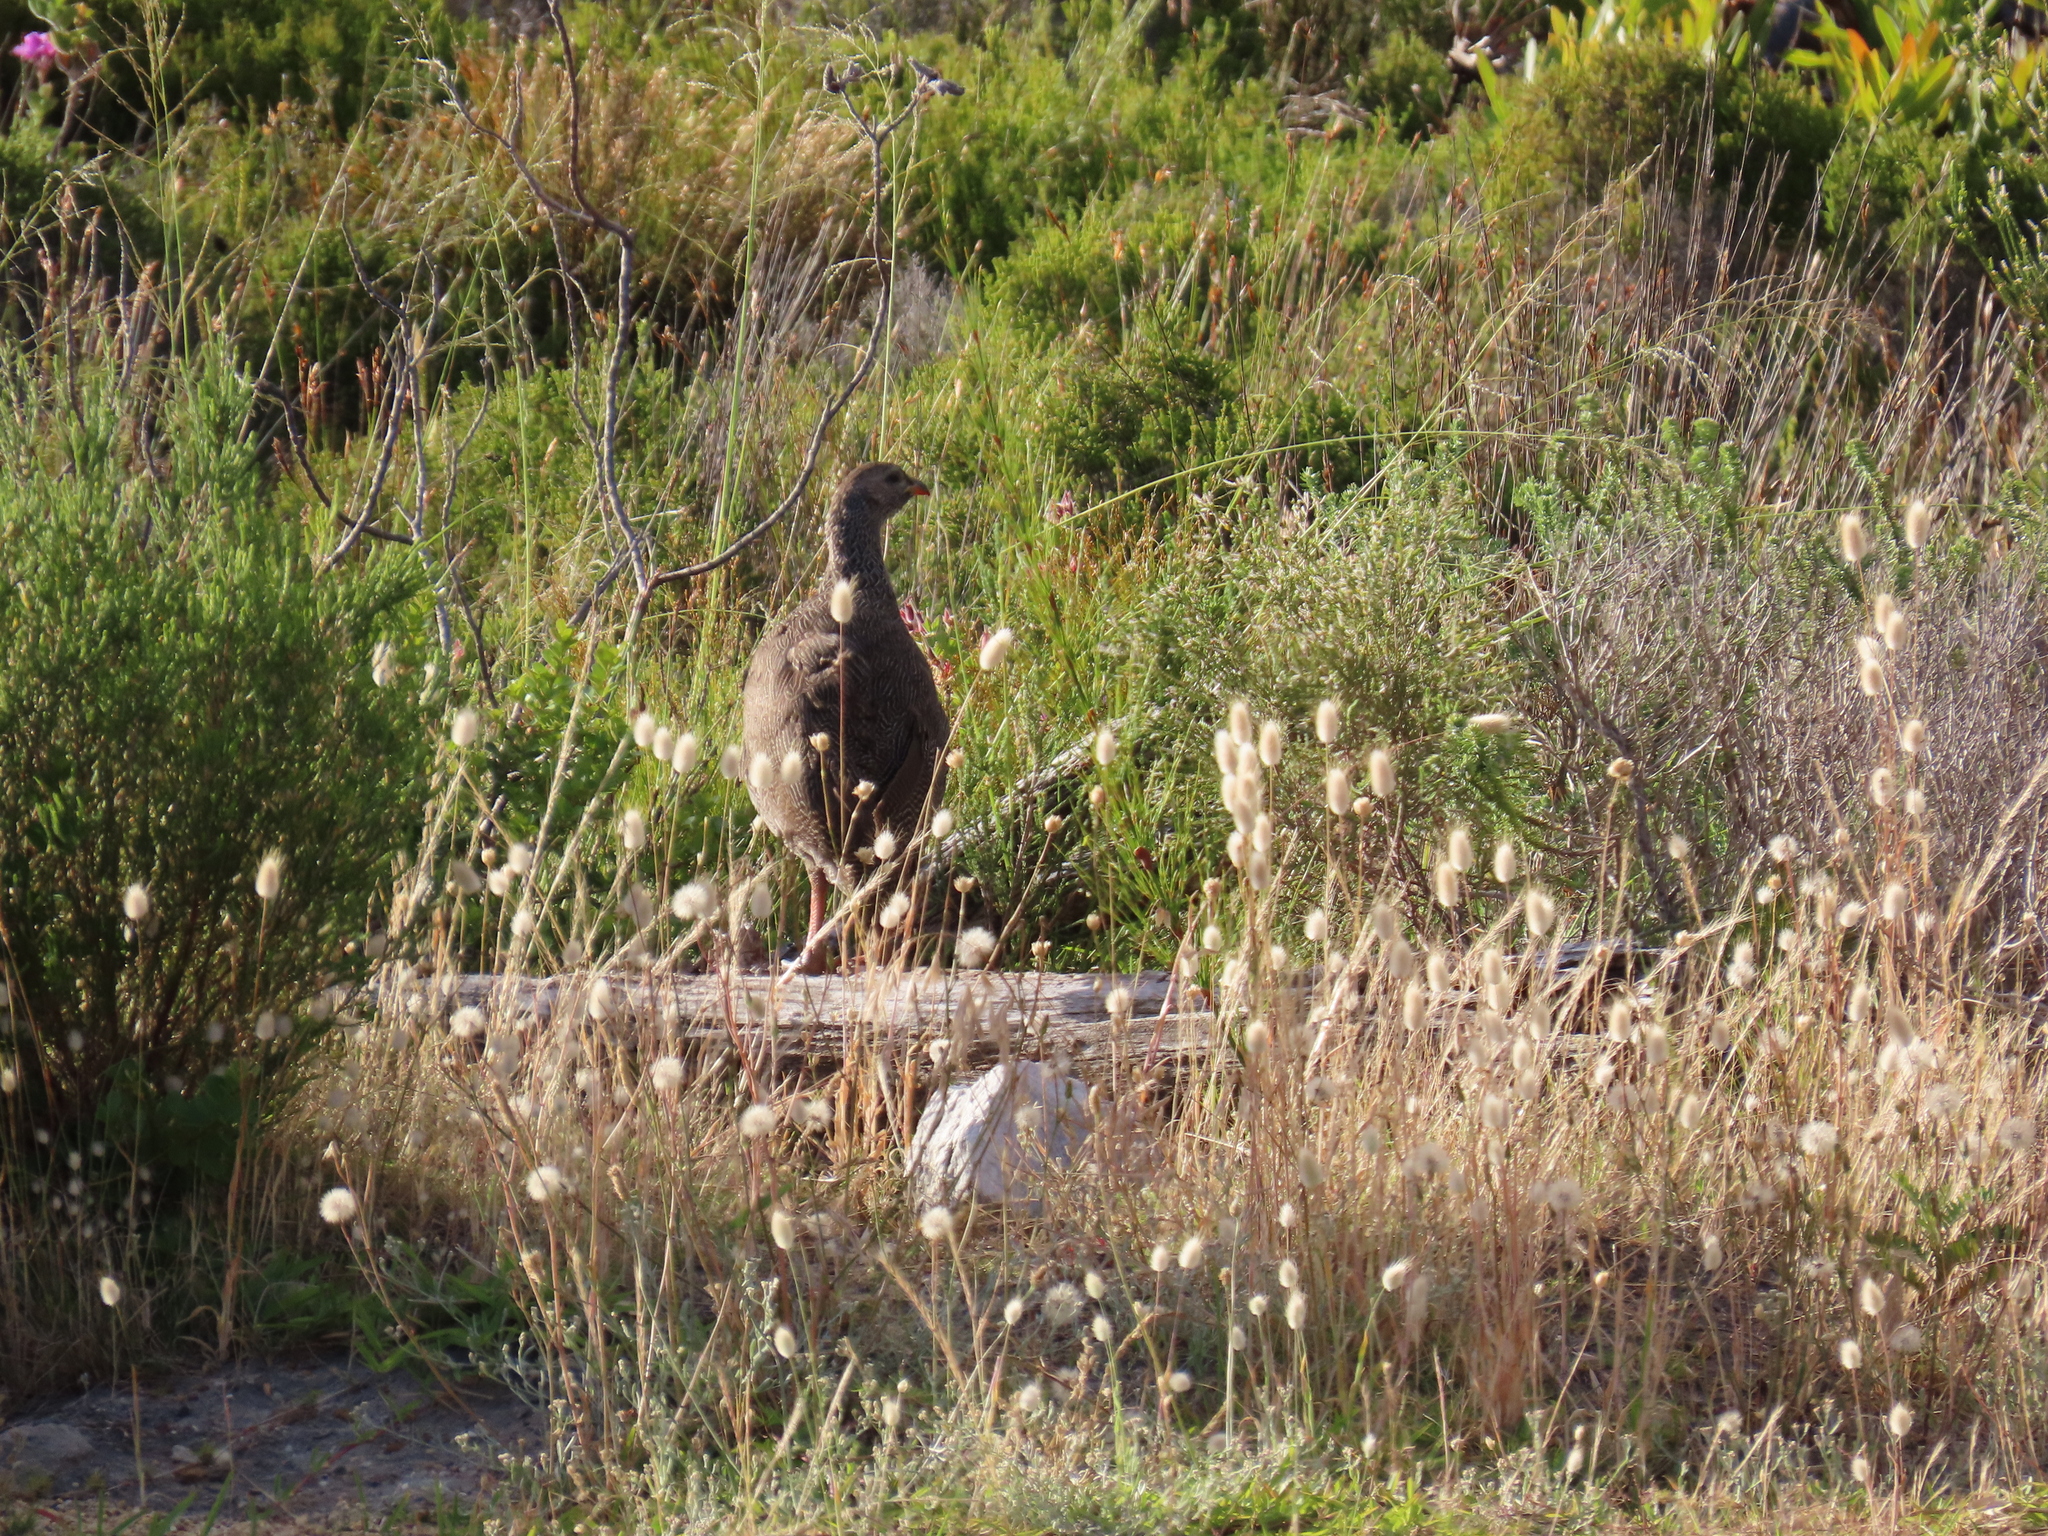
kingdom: Animalia
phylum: Chordata
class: Aves
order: Galliformes
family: Phasianidae
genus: Pternistis
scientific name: Pternistis capensis
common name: Cape spurfowl
